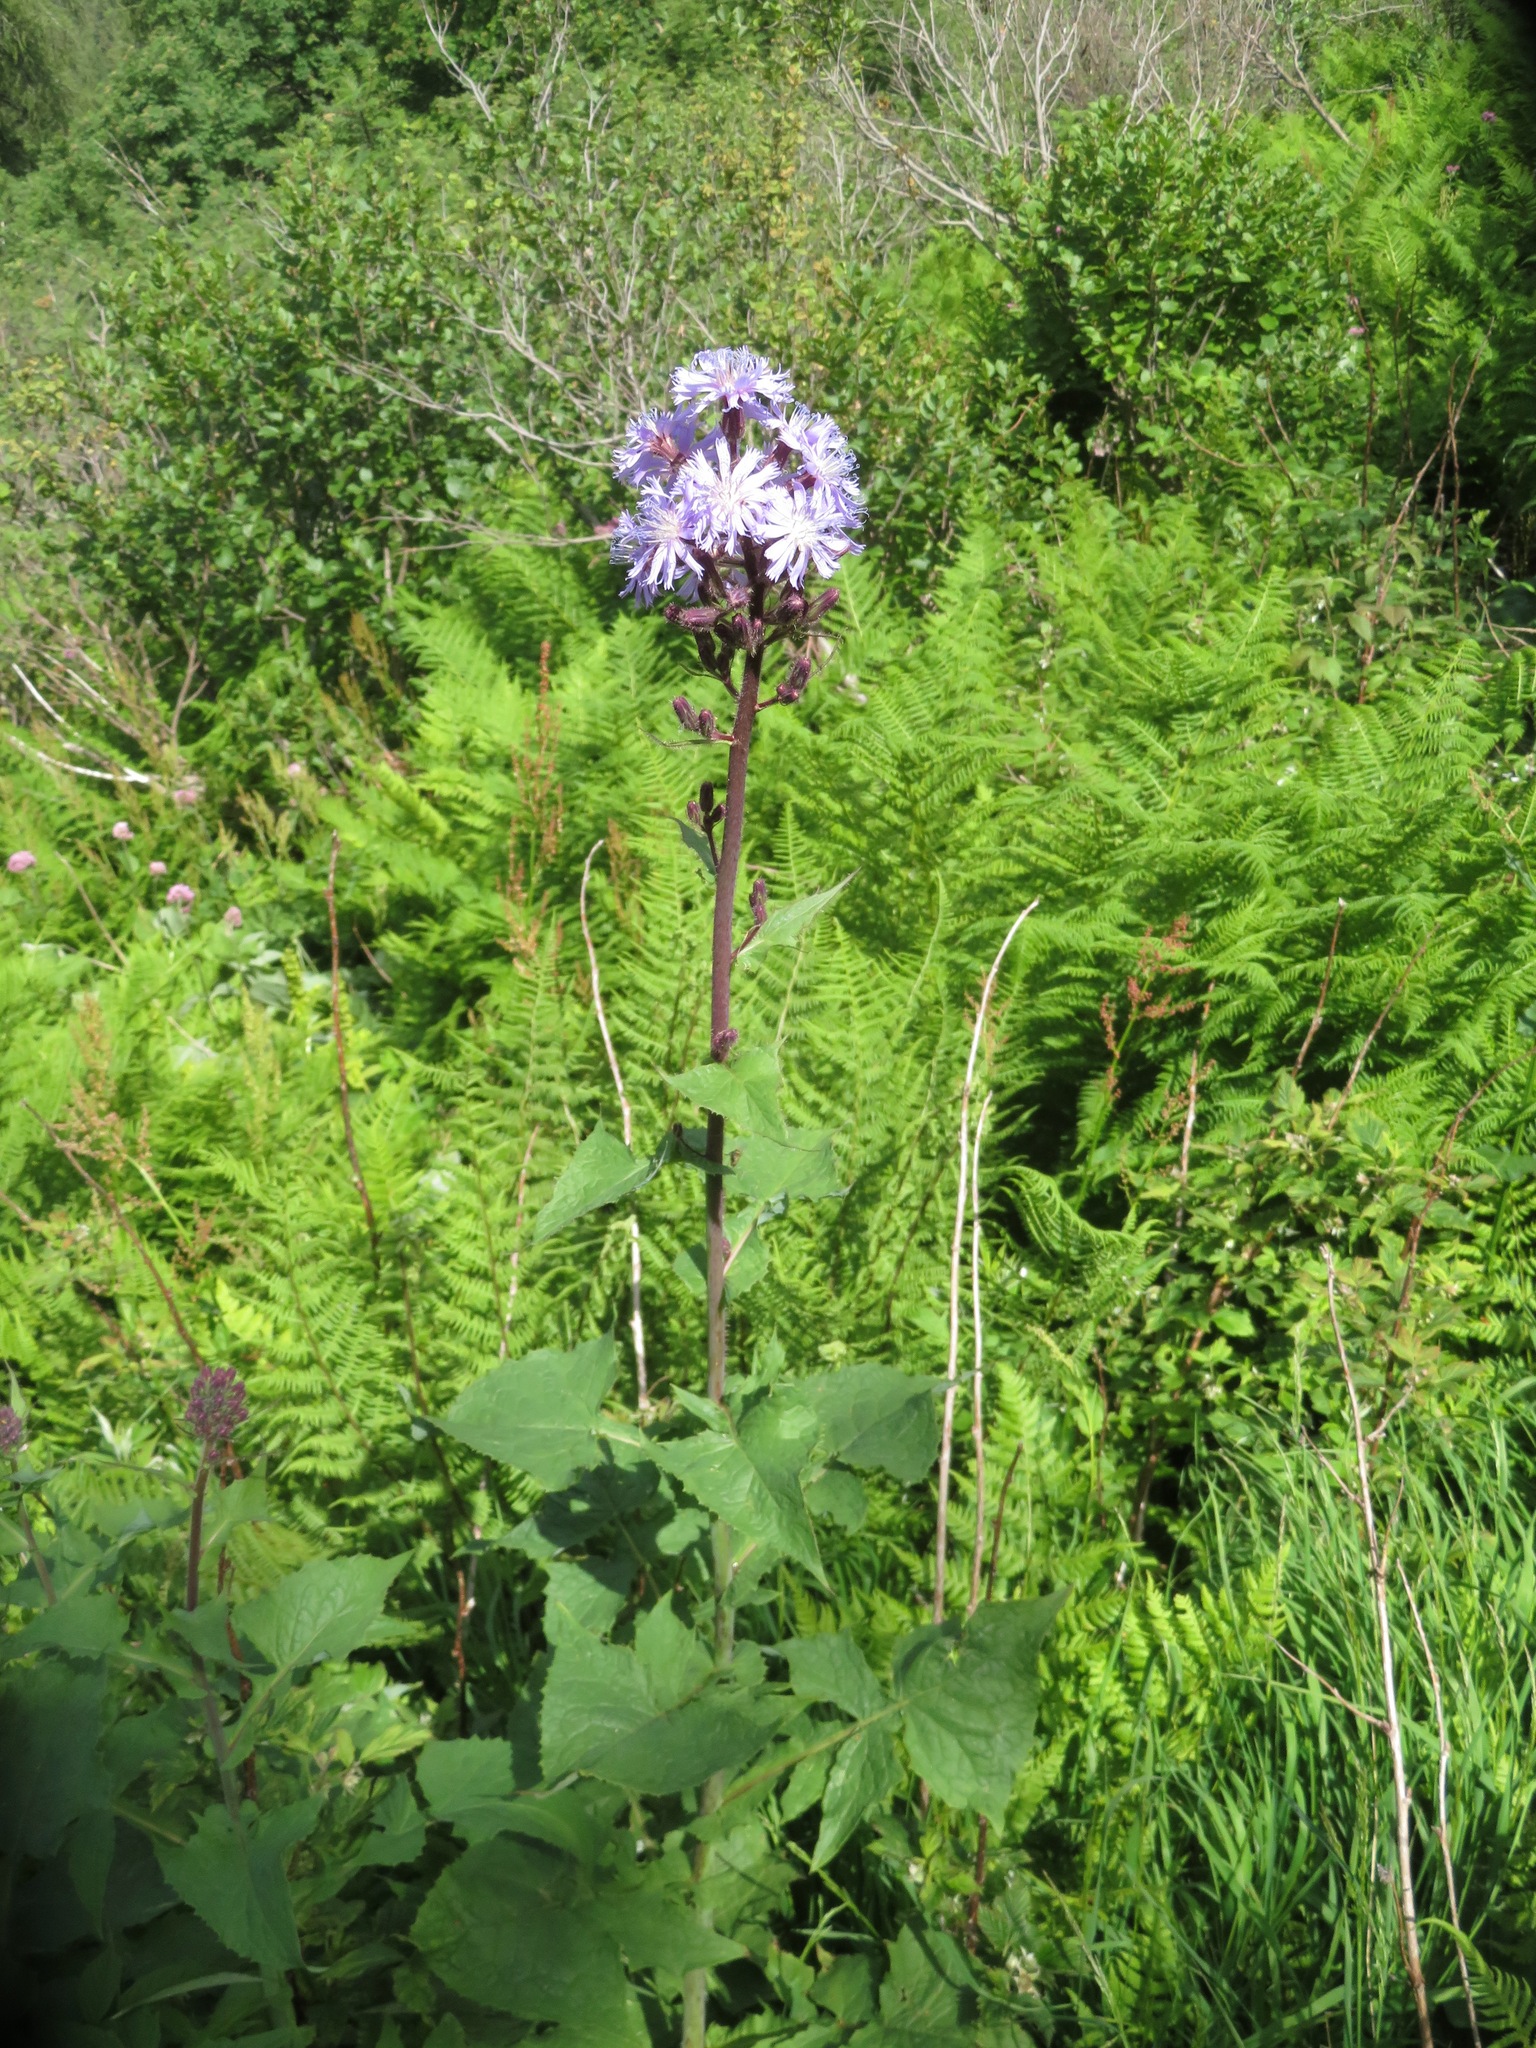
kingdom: Plantae
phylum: Tracheophyta
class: Magnoliopsida
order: Asterales
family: Asteraceae
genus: Cicerbita
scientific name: Cicerbita alpina
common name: Alpine blue-sow-thistle
